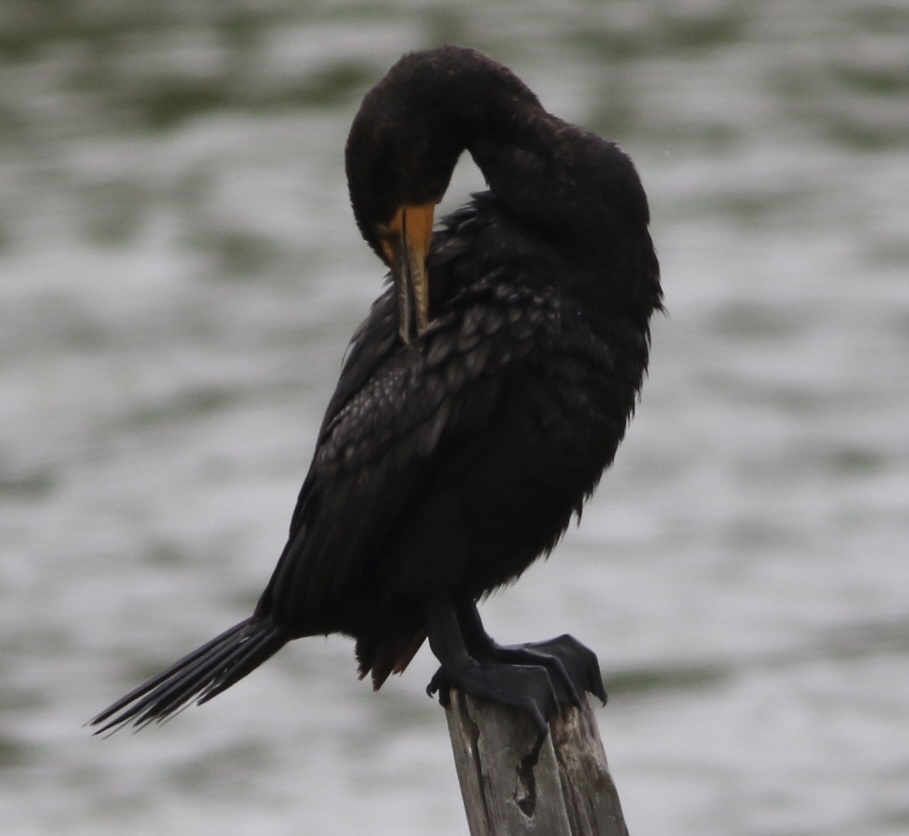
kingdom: Animalia
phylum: Chordata
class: Aves
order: Suliformes
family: Phalacrocoracidae
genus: Phalacrocorax
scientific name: Phalacrocorax auritus
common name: Double-crested cormorant
